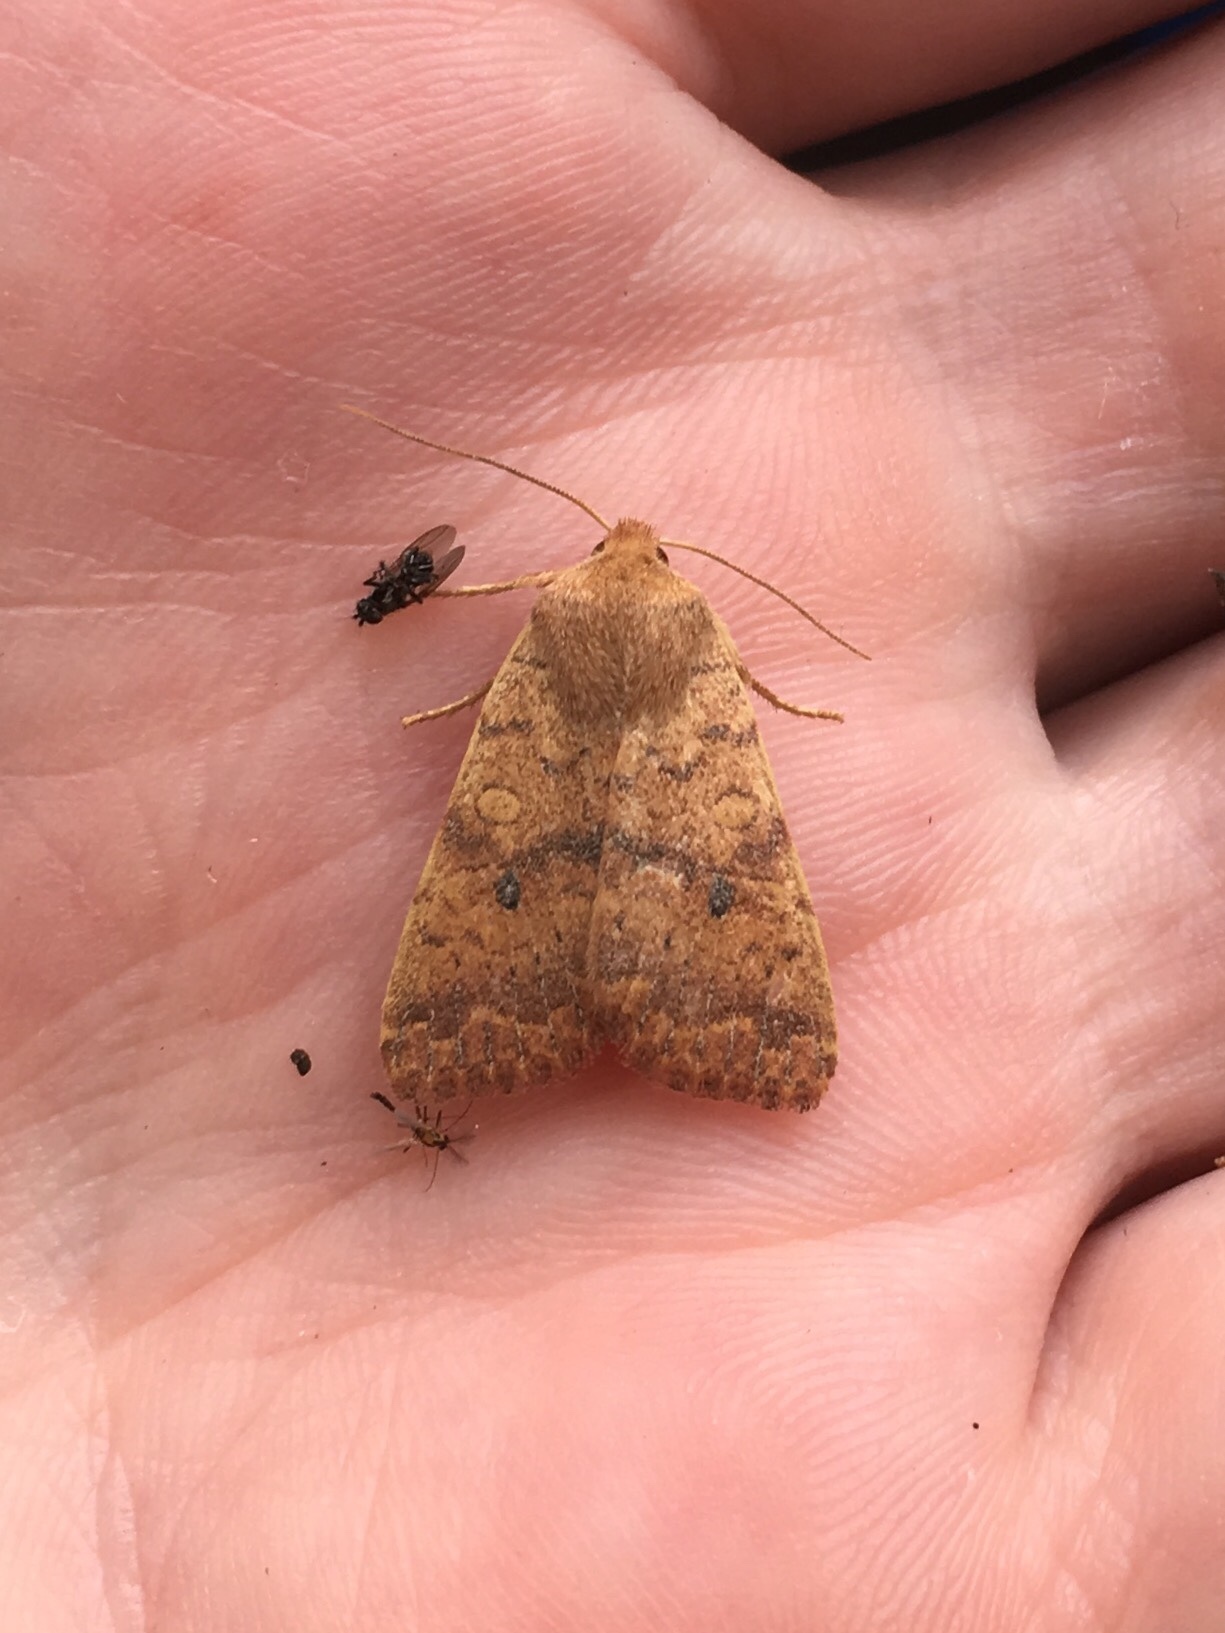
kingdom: Animalia
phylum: Arthropoda
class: Insecta
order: Lepidoptera
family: Noctuidae
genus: Agrochola
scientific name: Agrochola bicolorago
